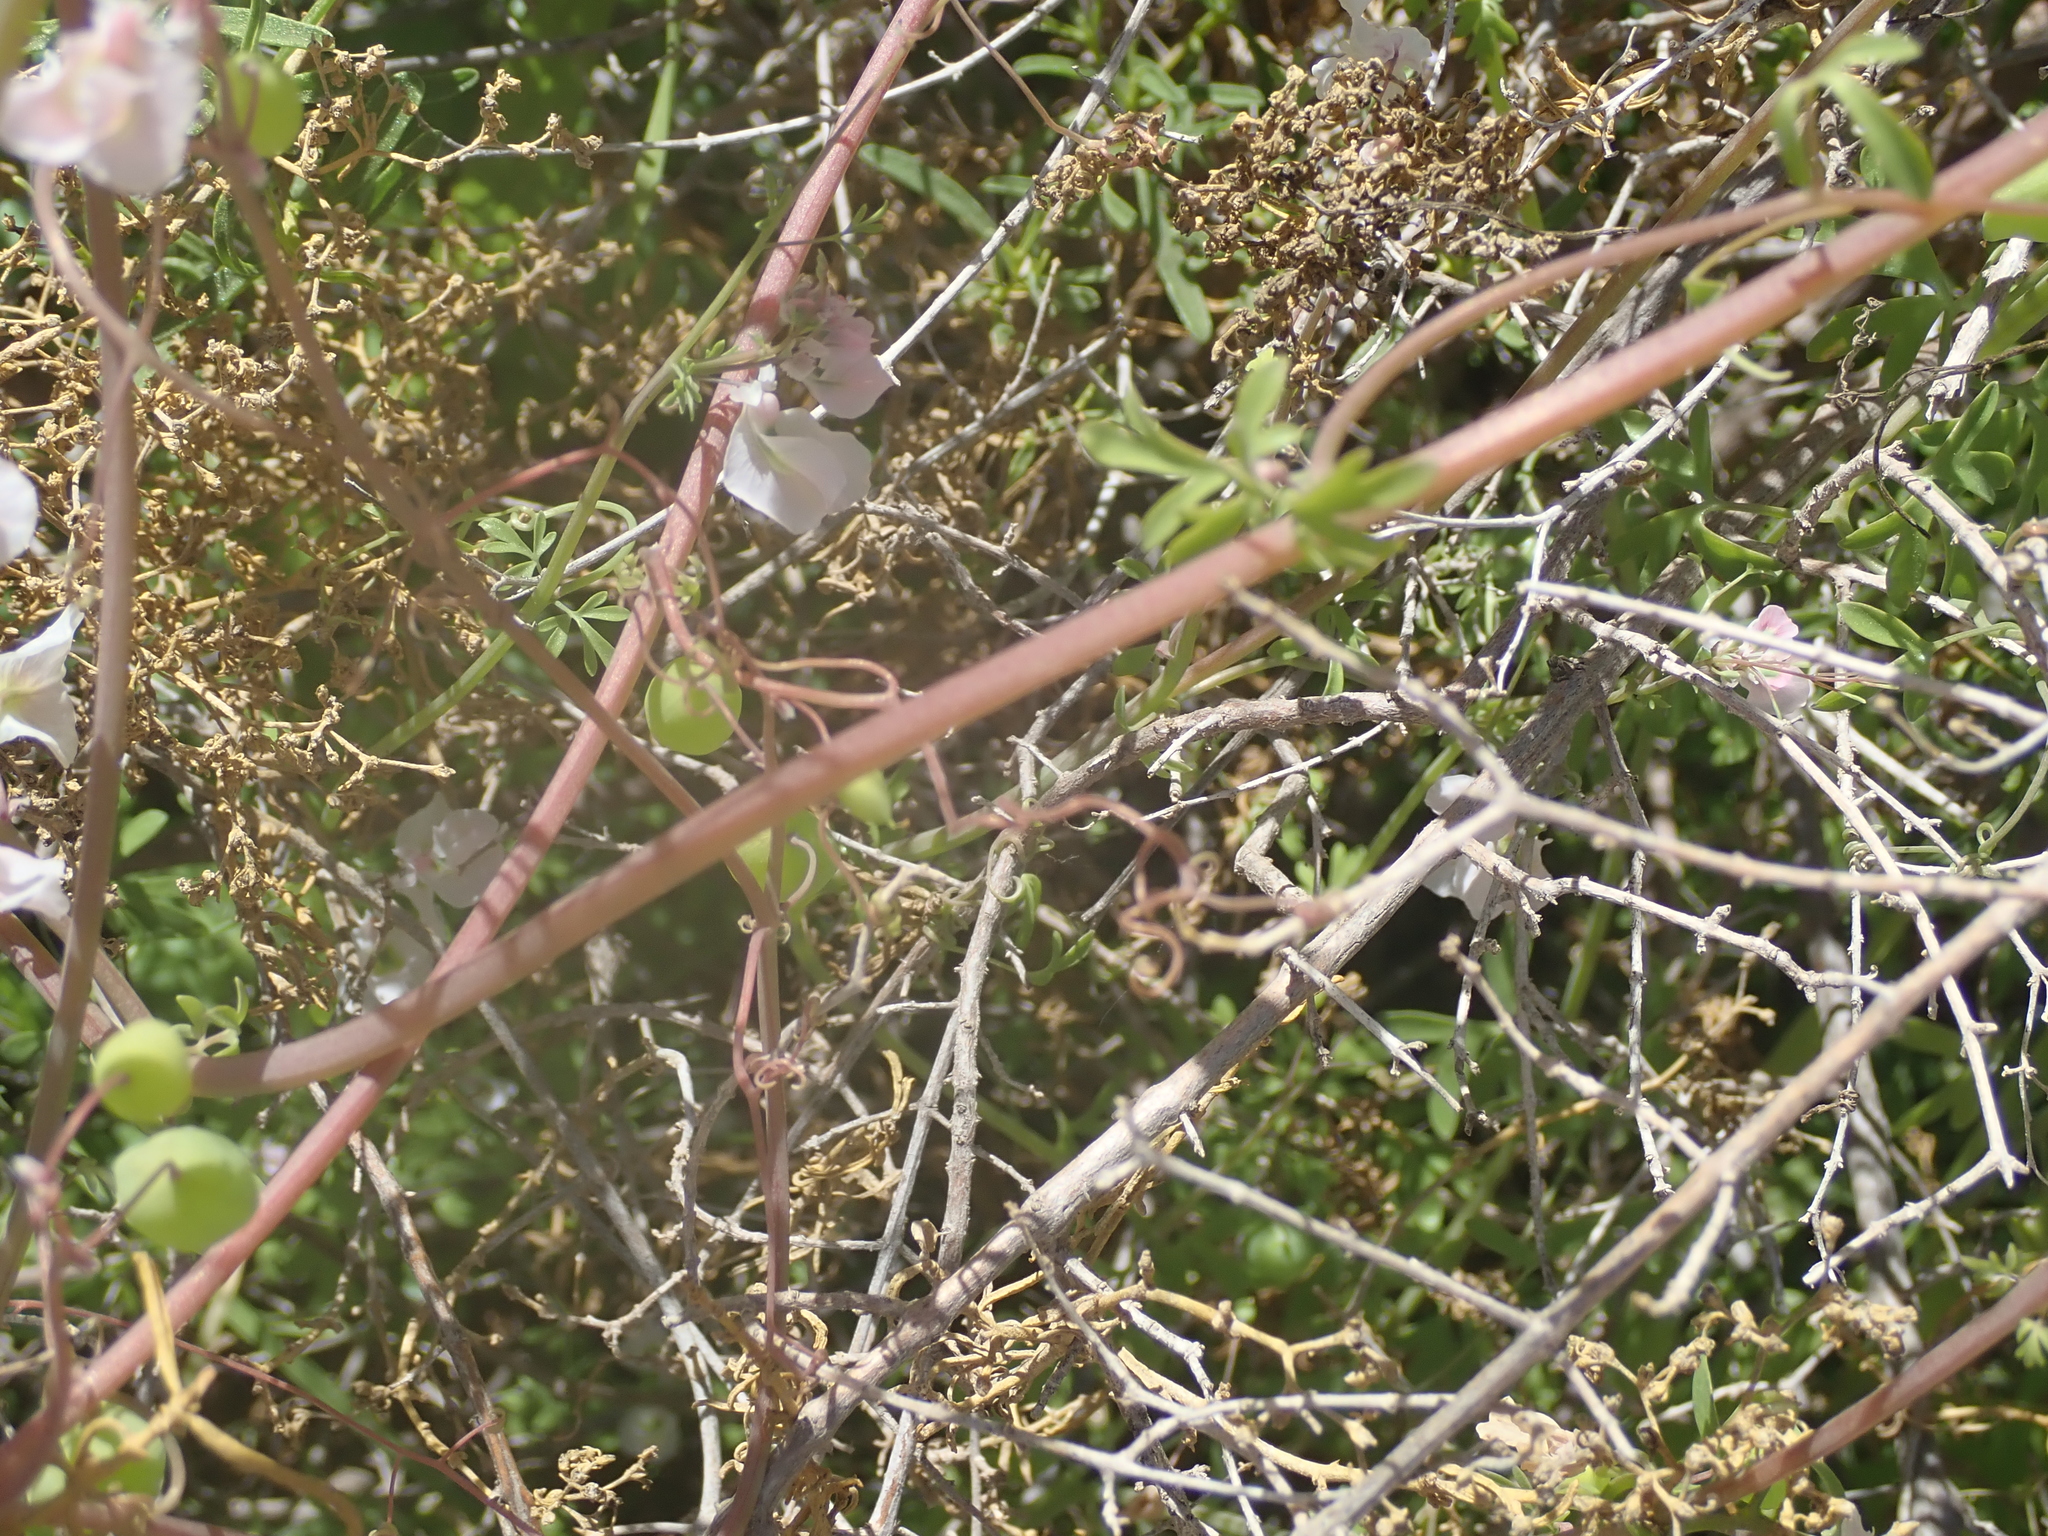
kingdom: Plantae
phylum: Tracheophyta
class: Magnoliopsida
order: Ranunculales
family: Papaveraceae
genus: Cysticapnos
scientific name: Cysticapnos vesicaria
